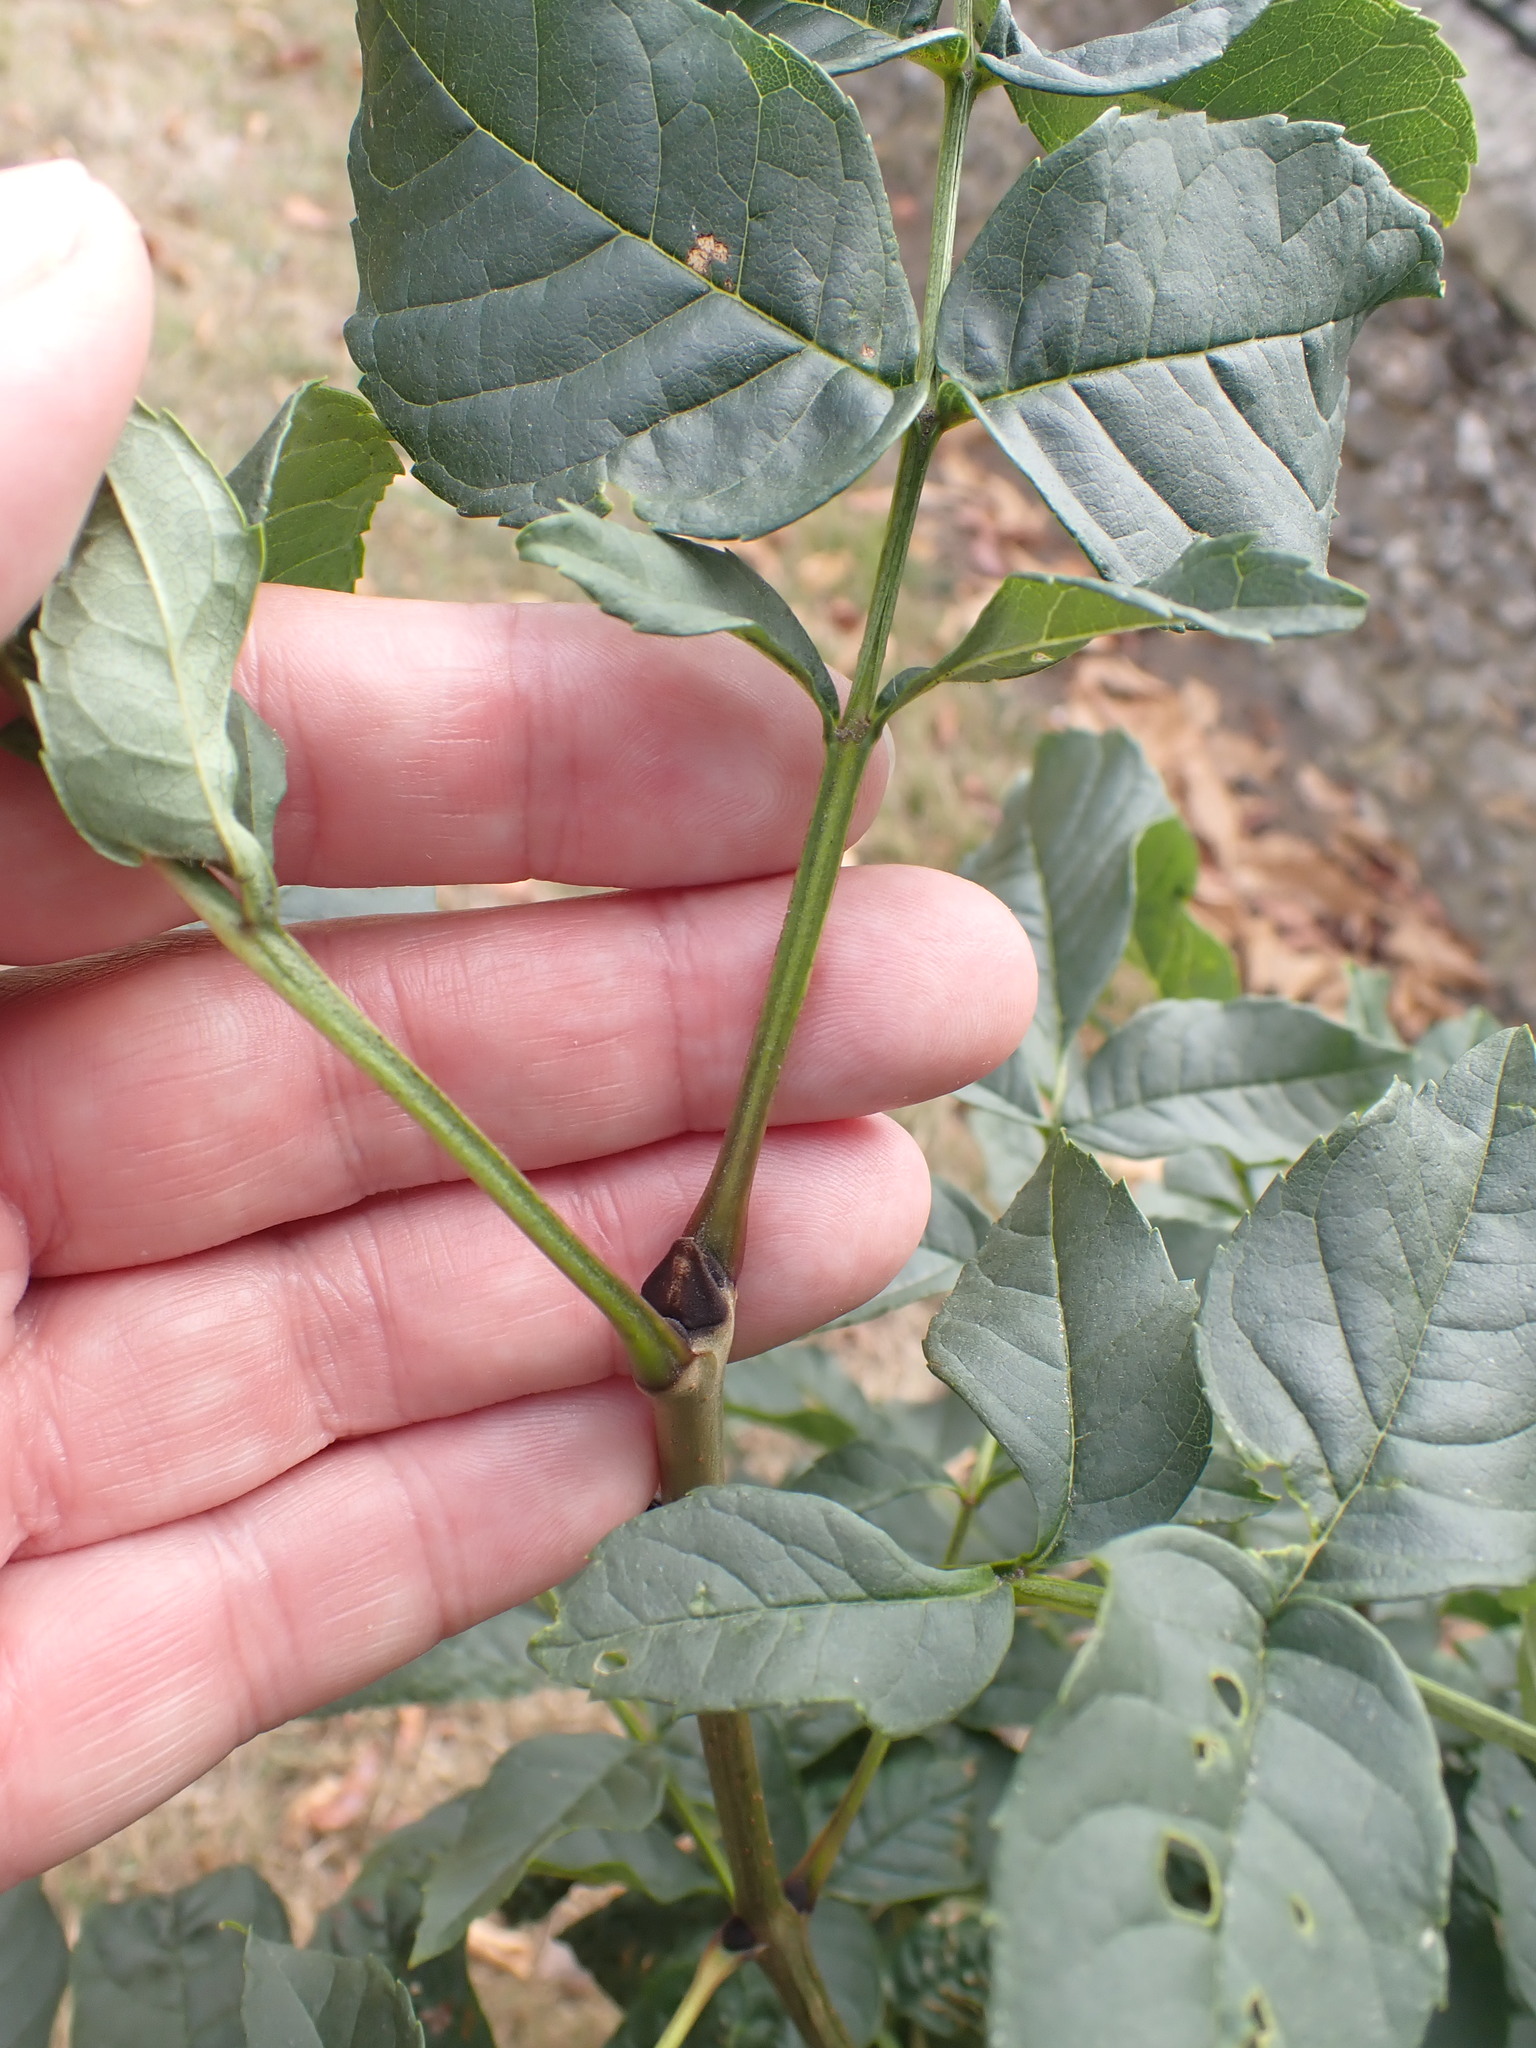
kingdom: Plantae
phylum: Tracheophyta
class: Magnoliopsida
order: Lamiales
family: Oleaceae
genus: Fraxinus
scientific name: Fraxinus excelsior
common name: European ash
